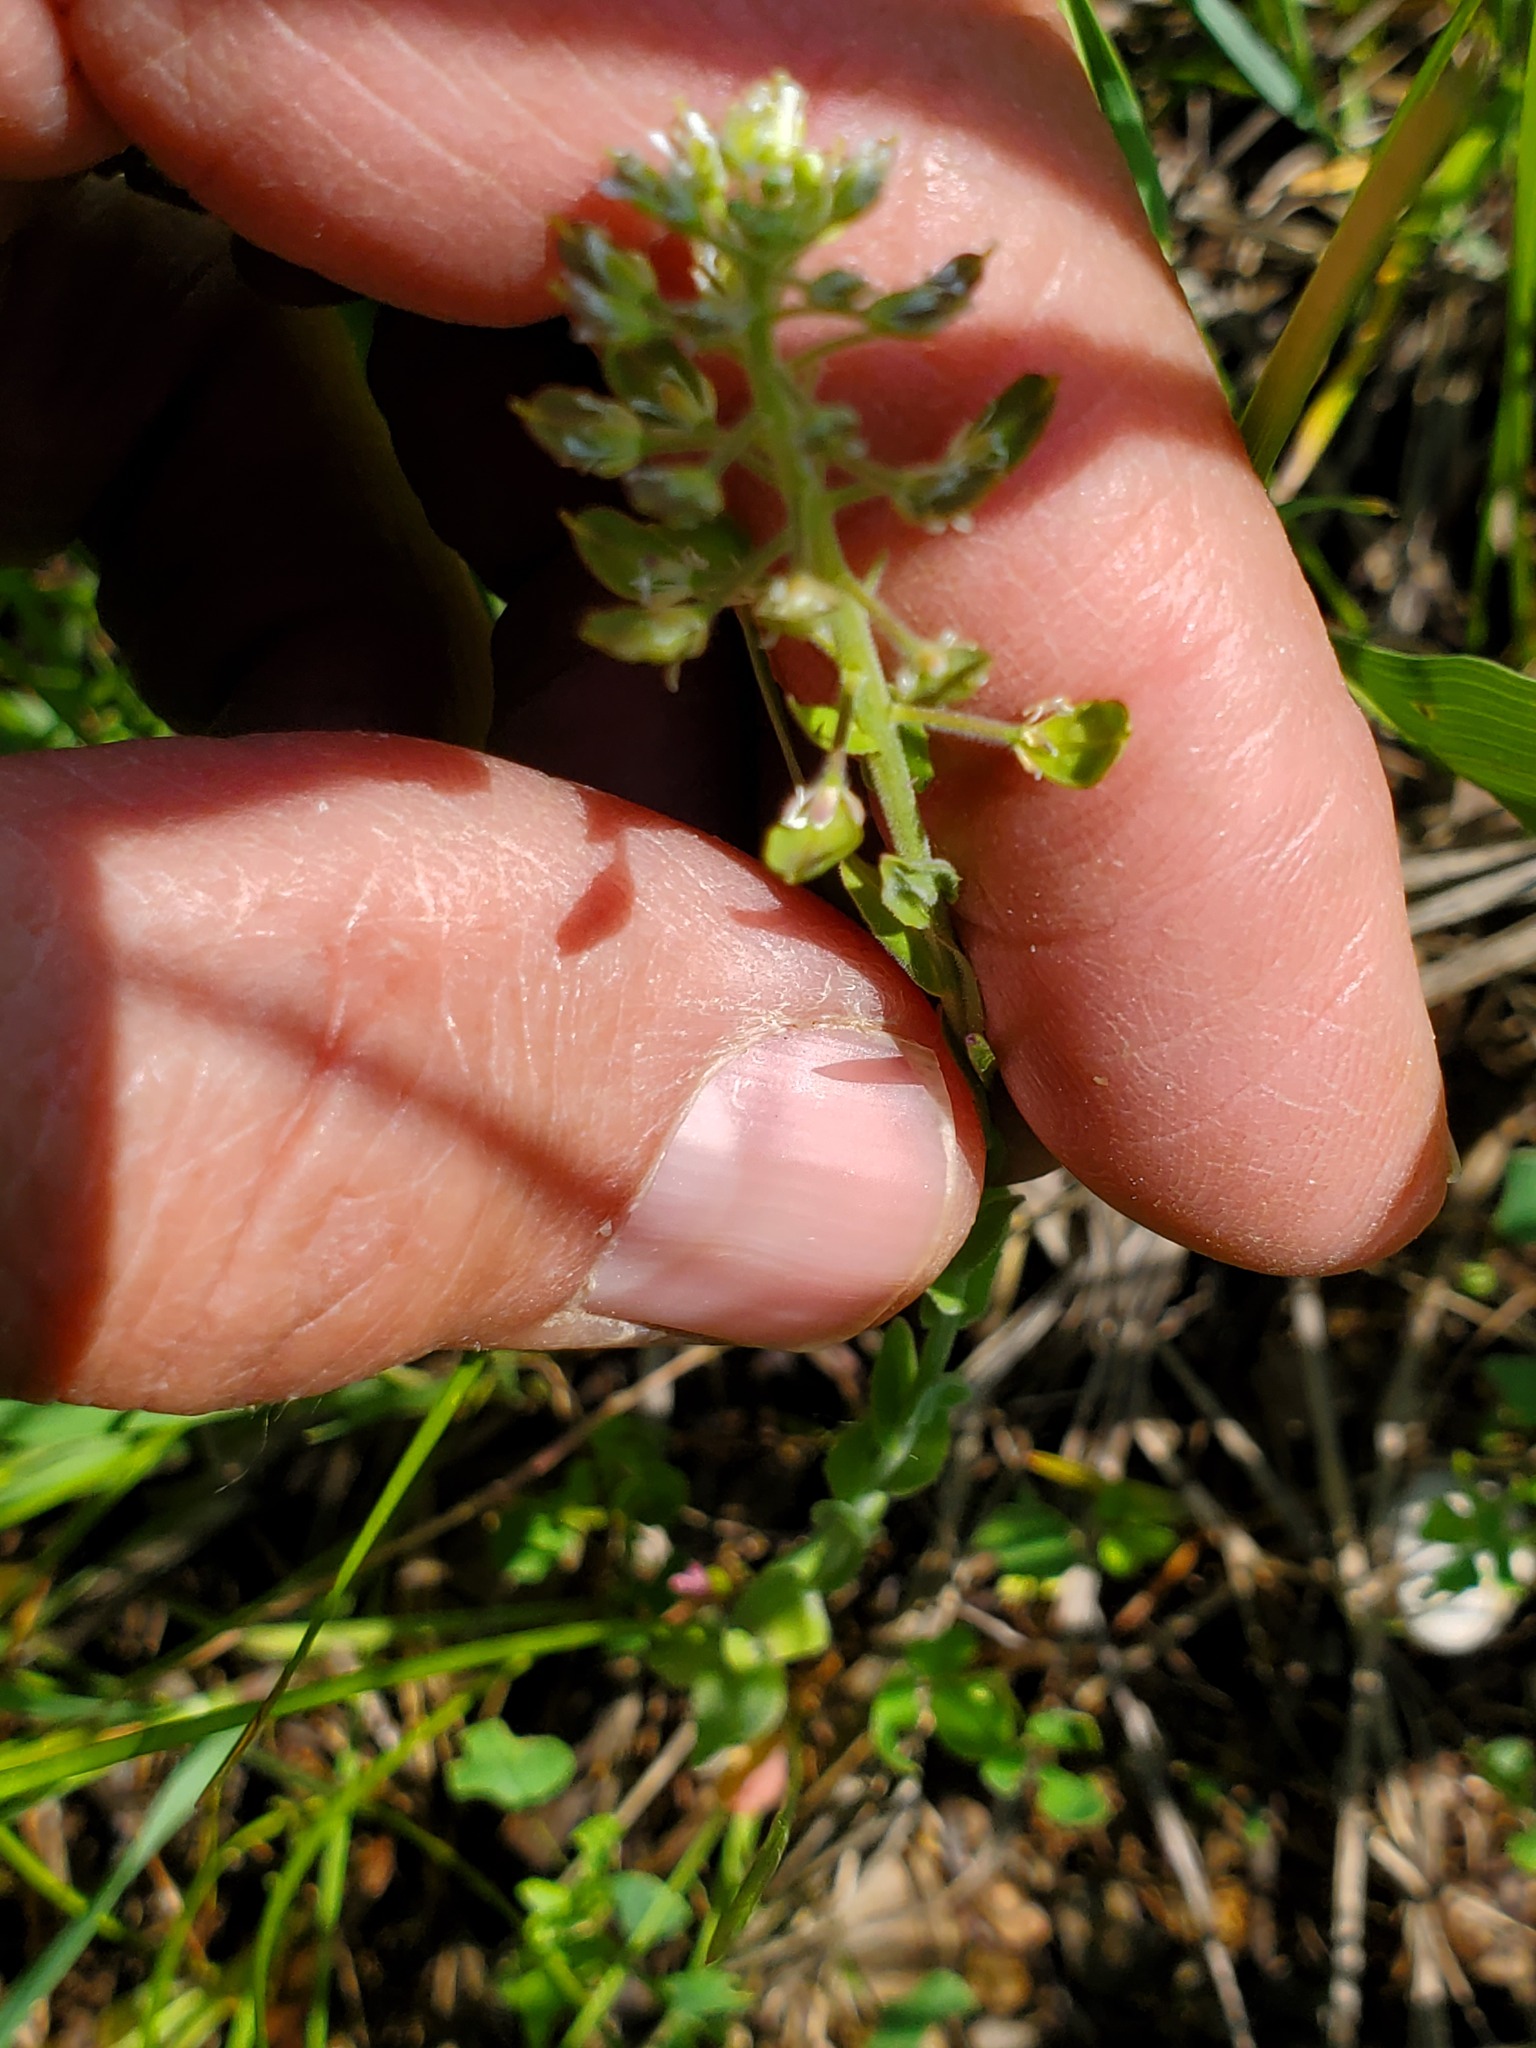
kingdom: Plantae
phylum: Tracheophyta
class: Magnoliopsida
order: Brassicales
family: Brassicaceae
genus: Lepidium
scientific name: Lepidium campestre
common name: Field pepperwort
